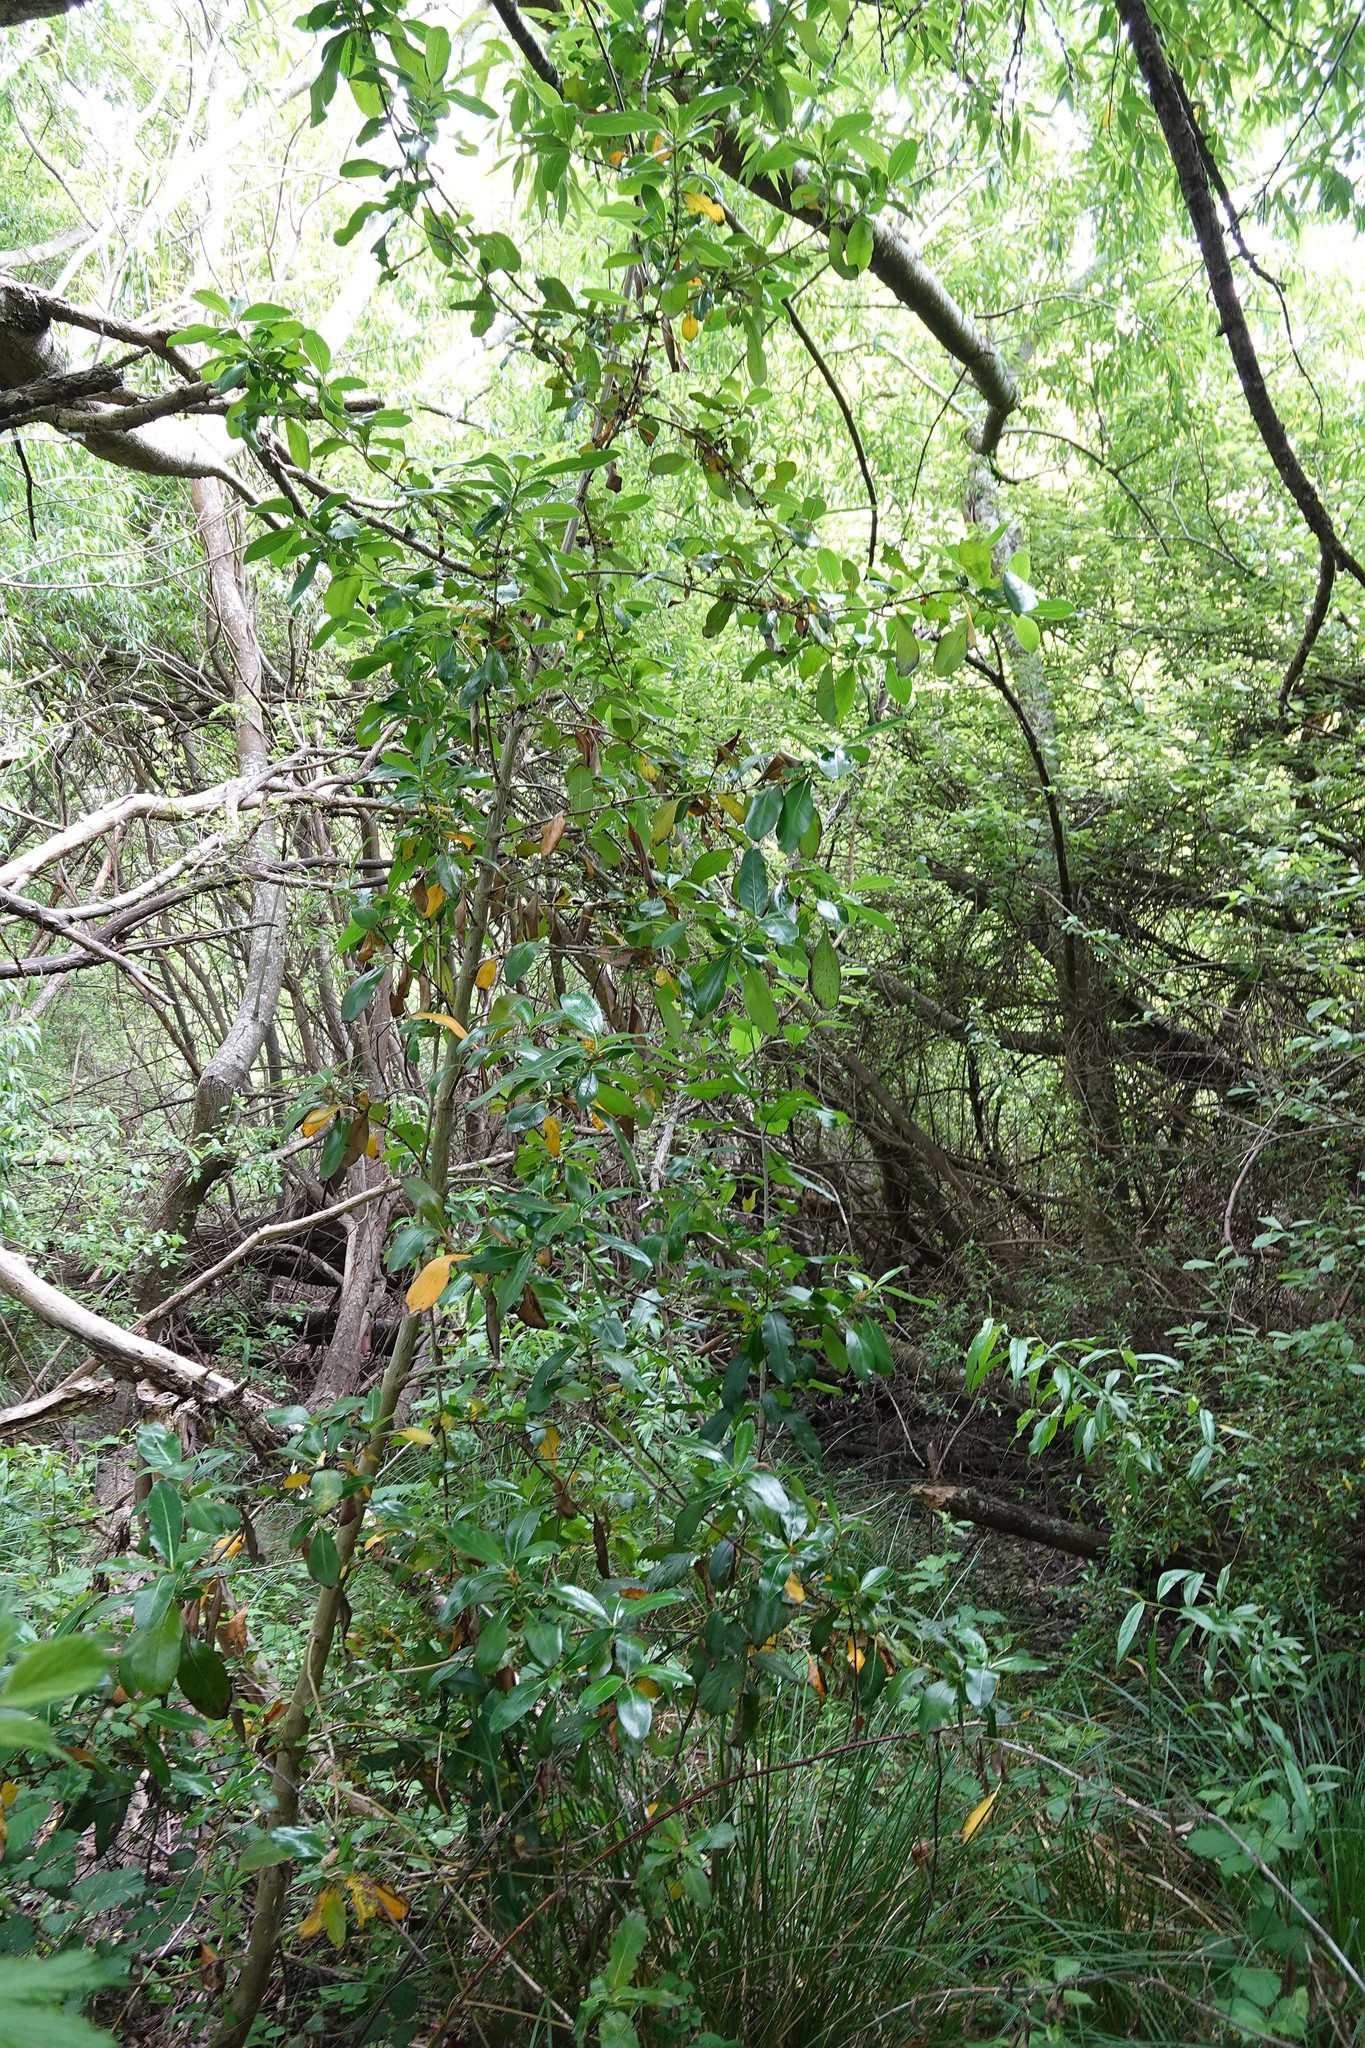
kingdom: Plantae
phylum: Tracheophyta
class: Magnoliopsida
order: Gentianales
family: Rubiaceae
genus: Coprosma
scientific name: Coprosma robusta
